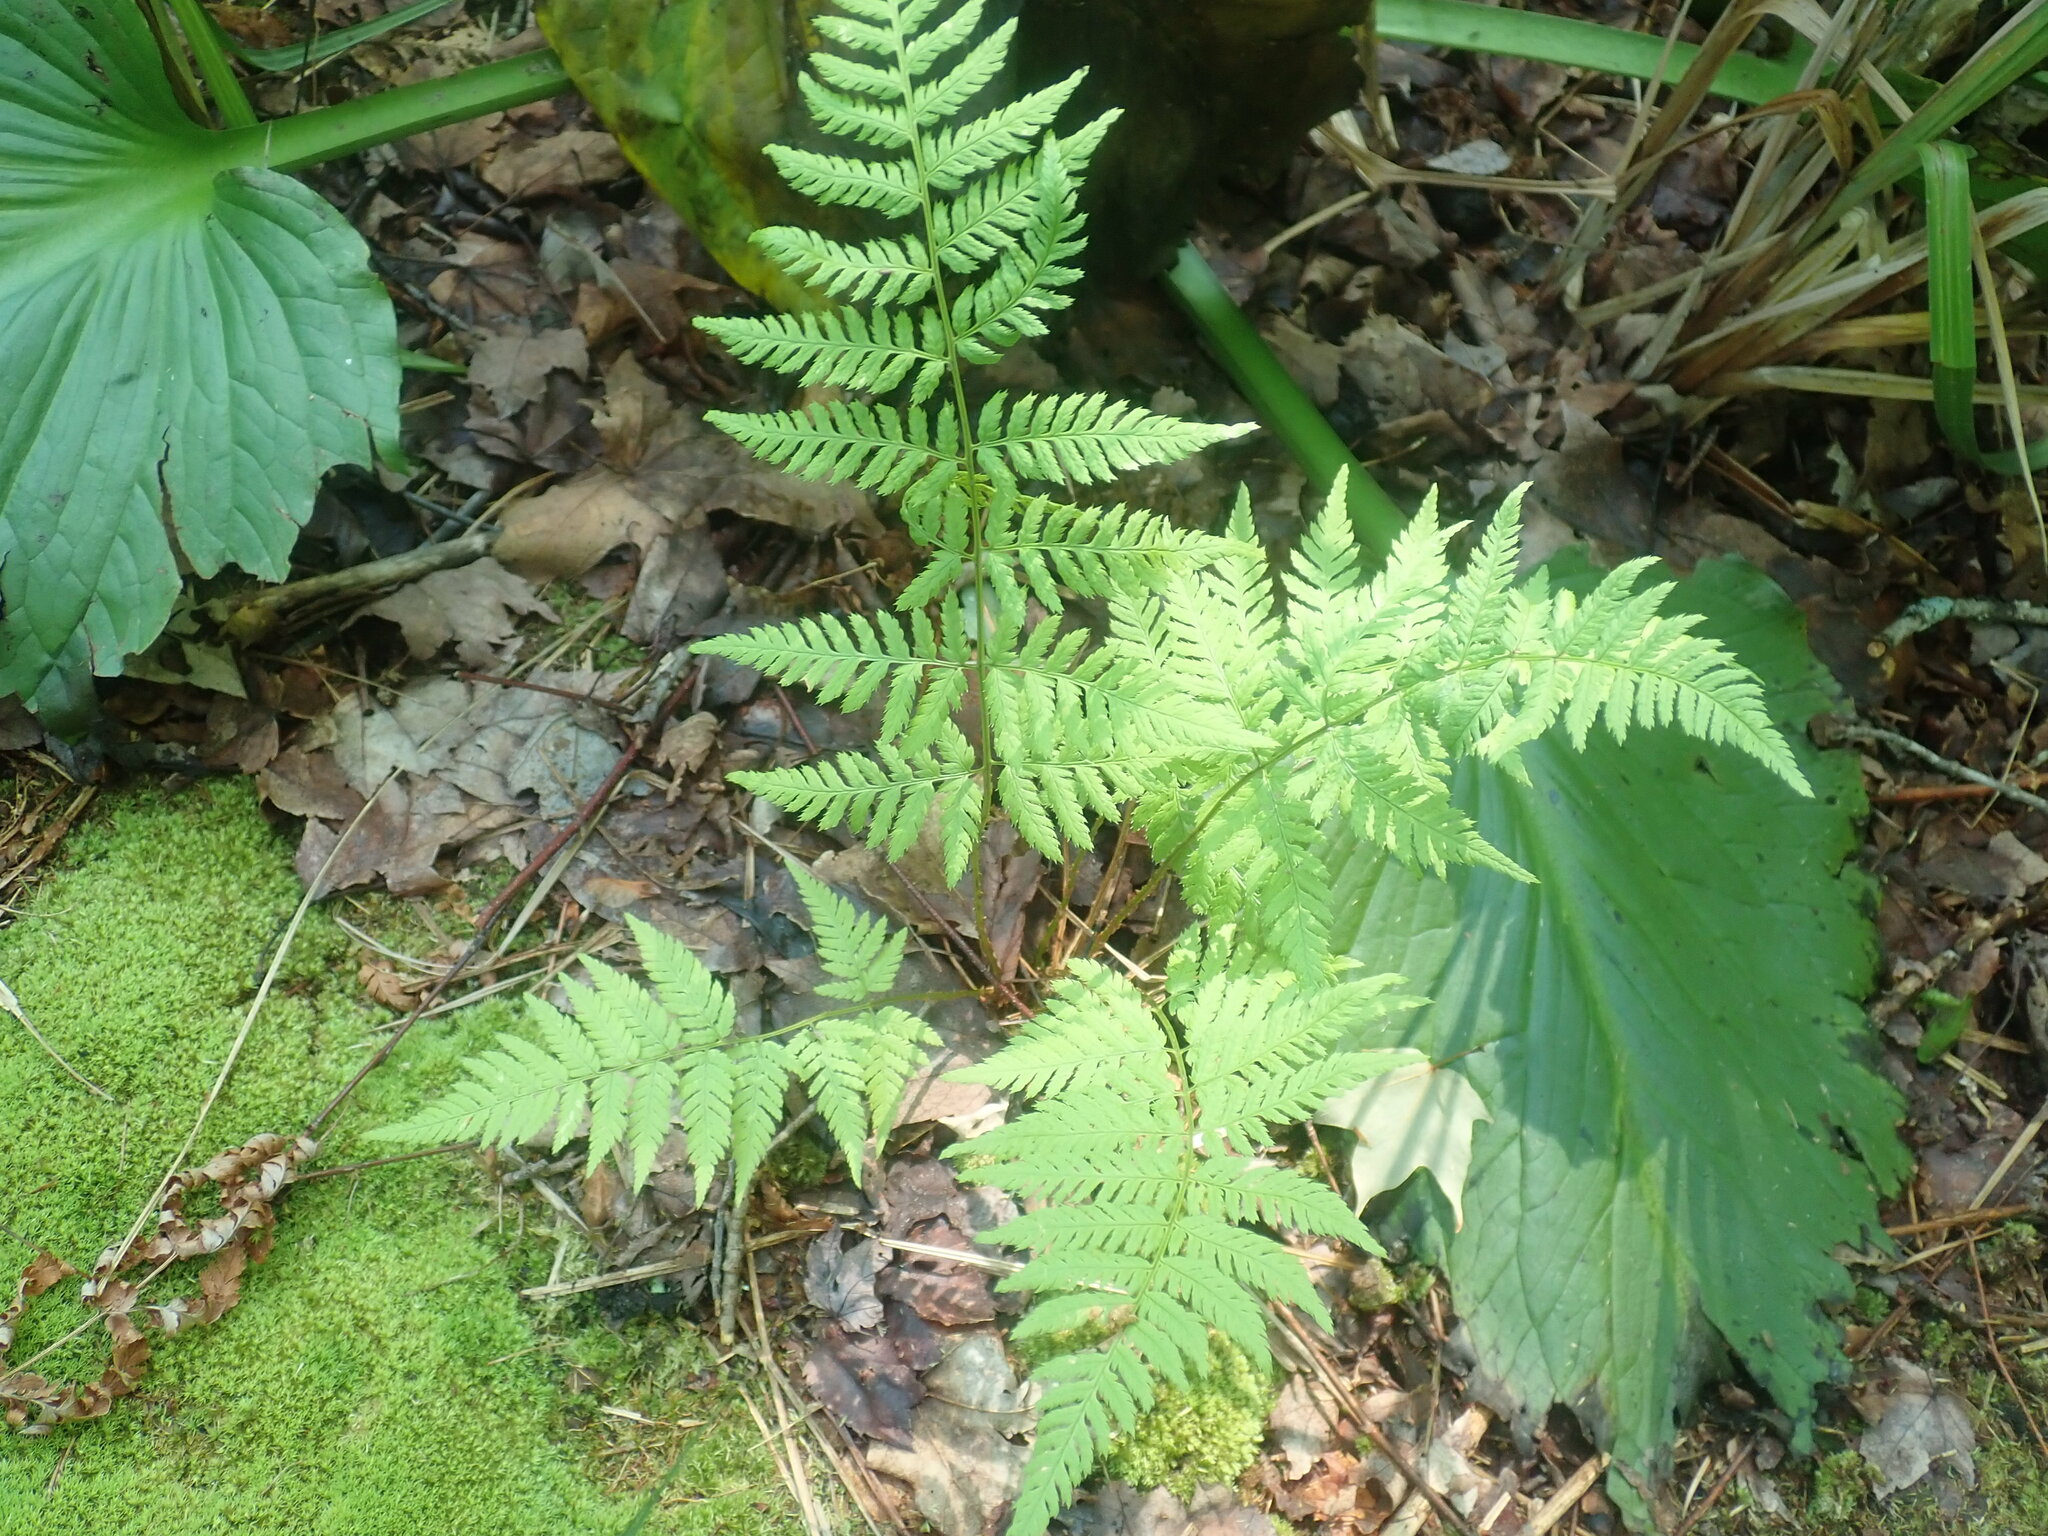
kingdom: Plantae
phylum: Tracheophyta
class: Polypodiopsida
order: Polypodiales
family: Dryopteridaceae
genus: Dryopteris
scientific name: Dryopteris intermedia
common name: Evergreen wood fern
